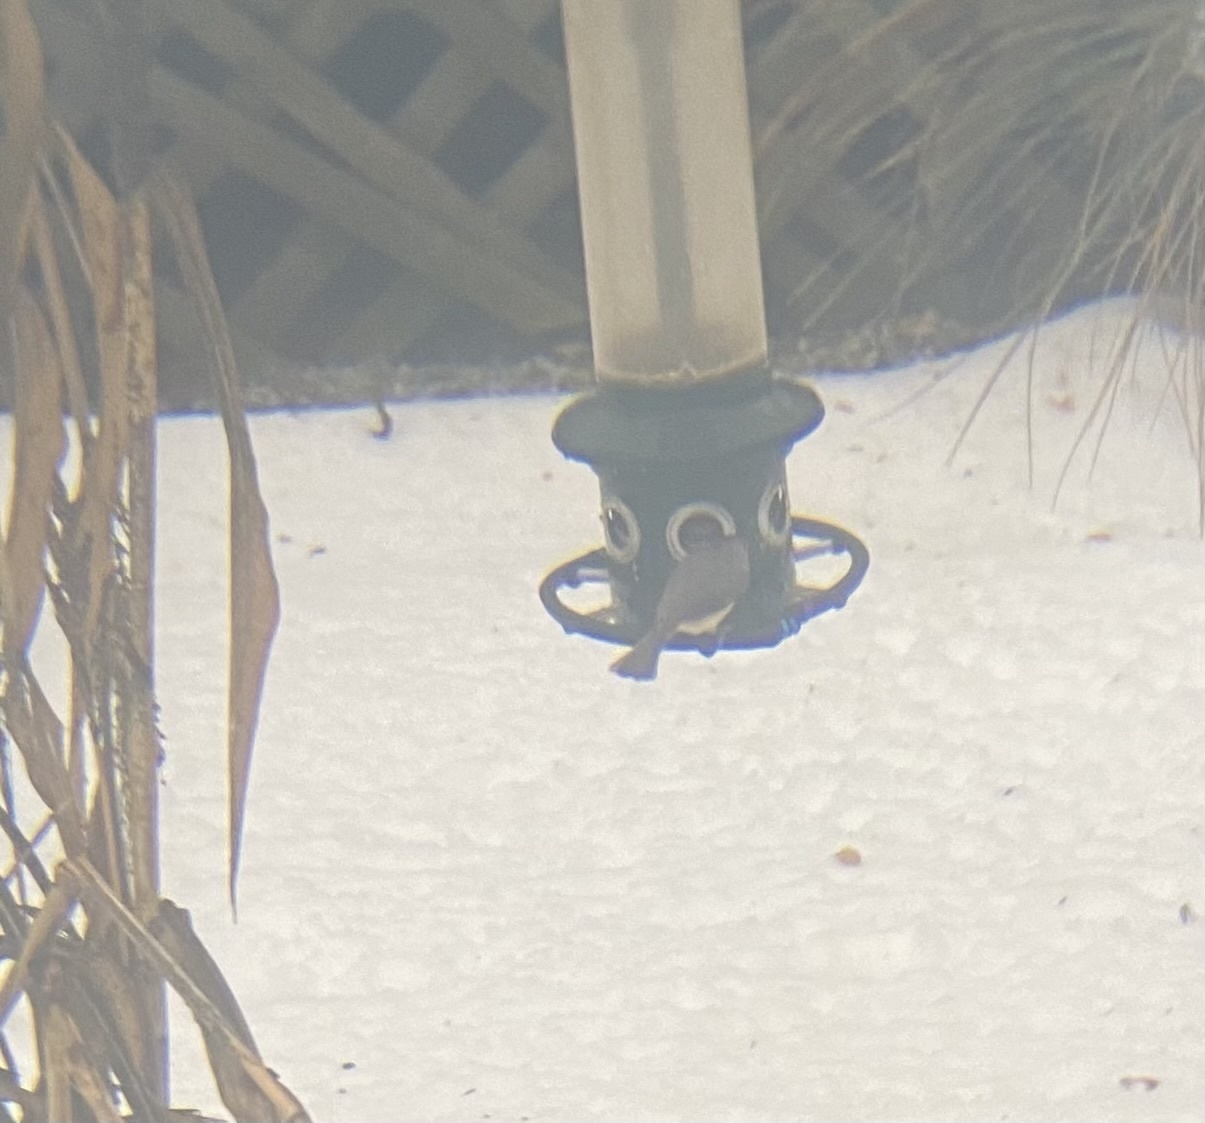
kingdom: Animalia
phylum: Chordata
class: Aves
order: Passeriformes
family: Paridae
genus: Baeolophus
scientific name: Baeolophus bicolor
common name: Tufted titmouse
